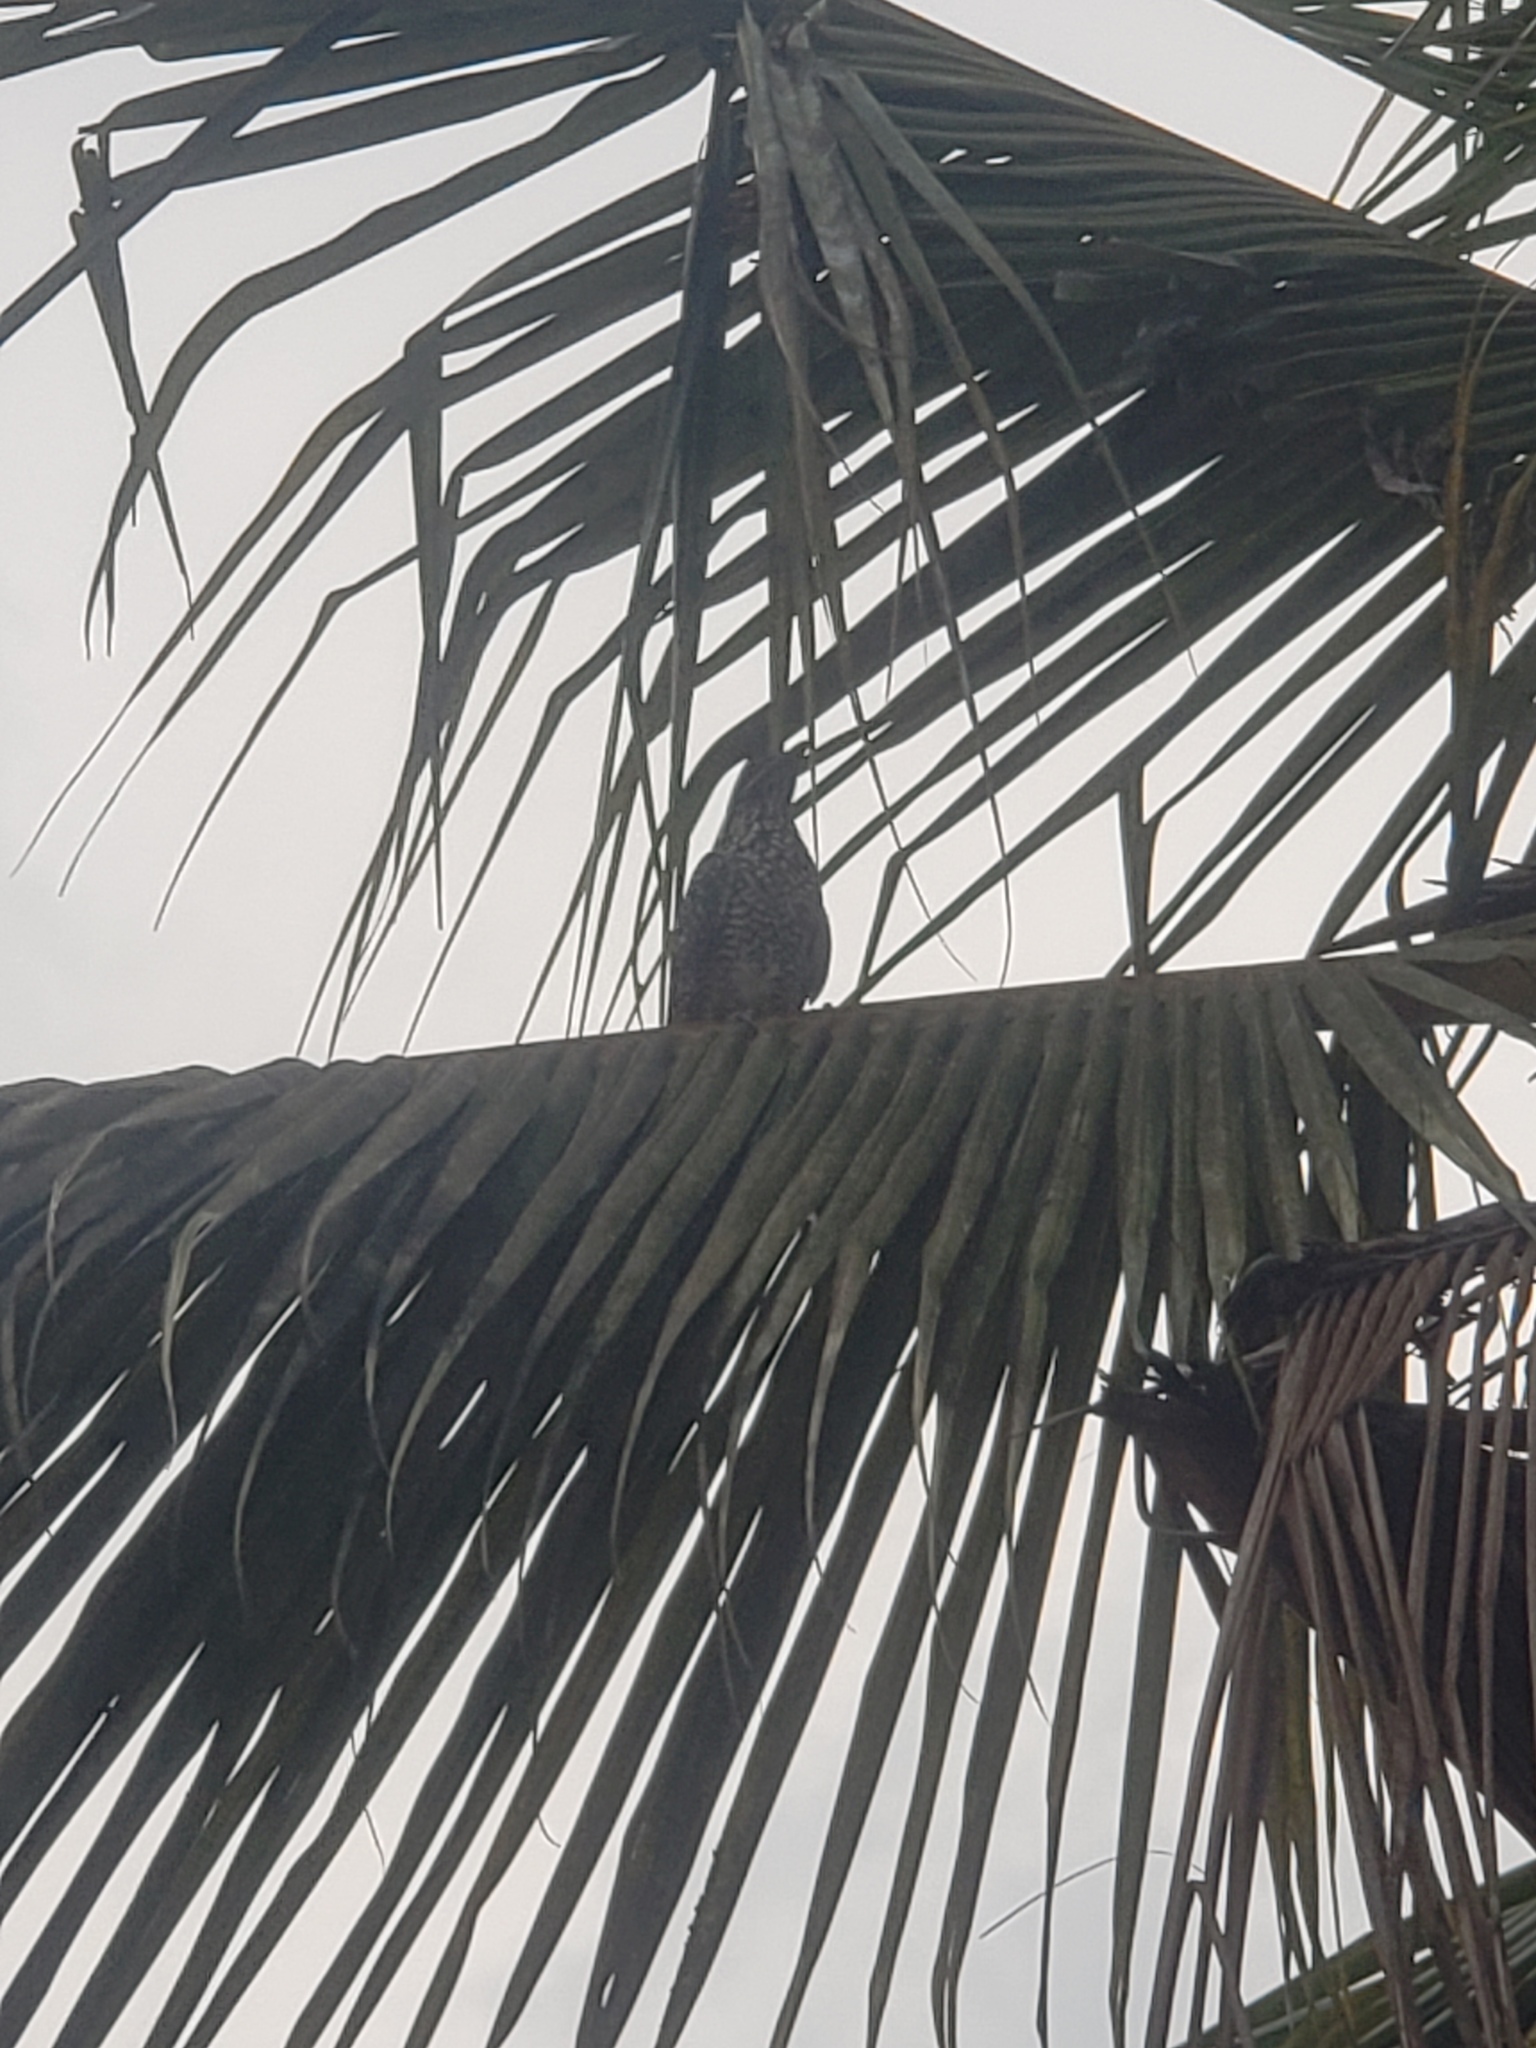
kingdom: Animalia
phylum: Chordata
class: Aves
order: Cuculiformes
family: Cuculidae
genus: Eudynamys
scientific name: Eudynamys scolopaceus
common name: Asian koel
